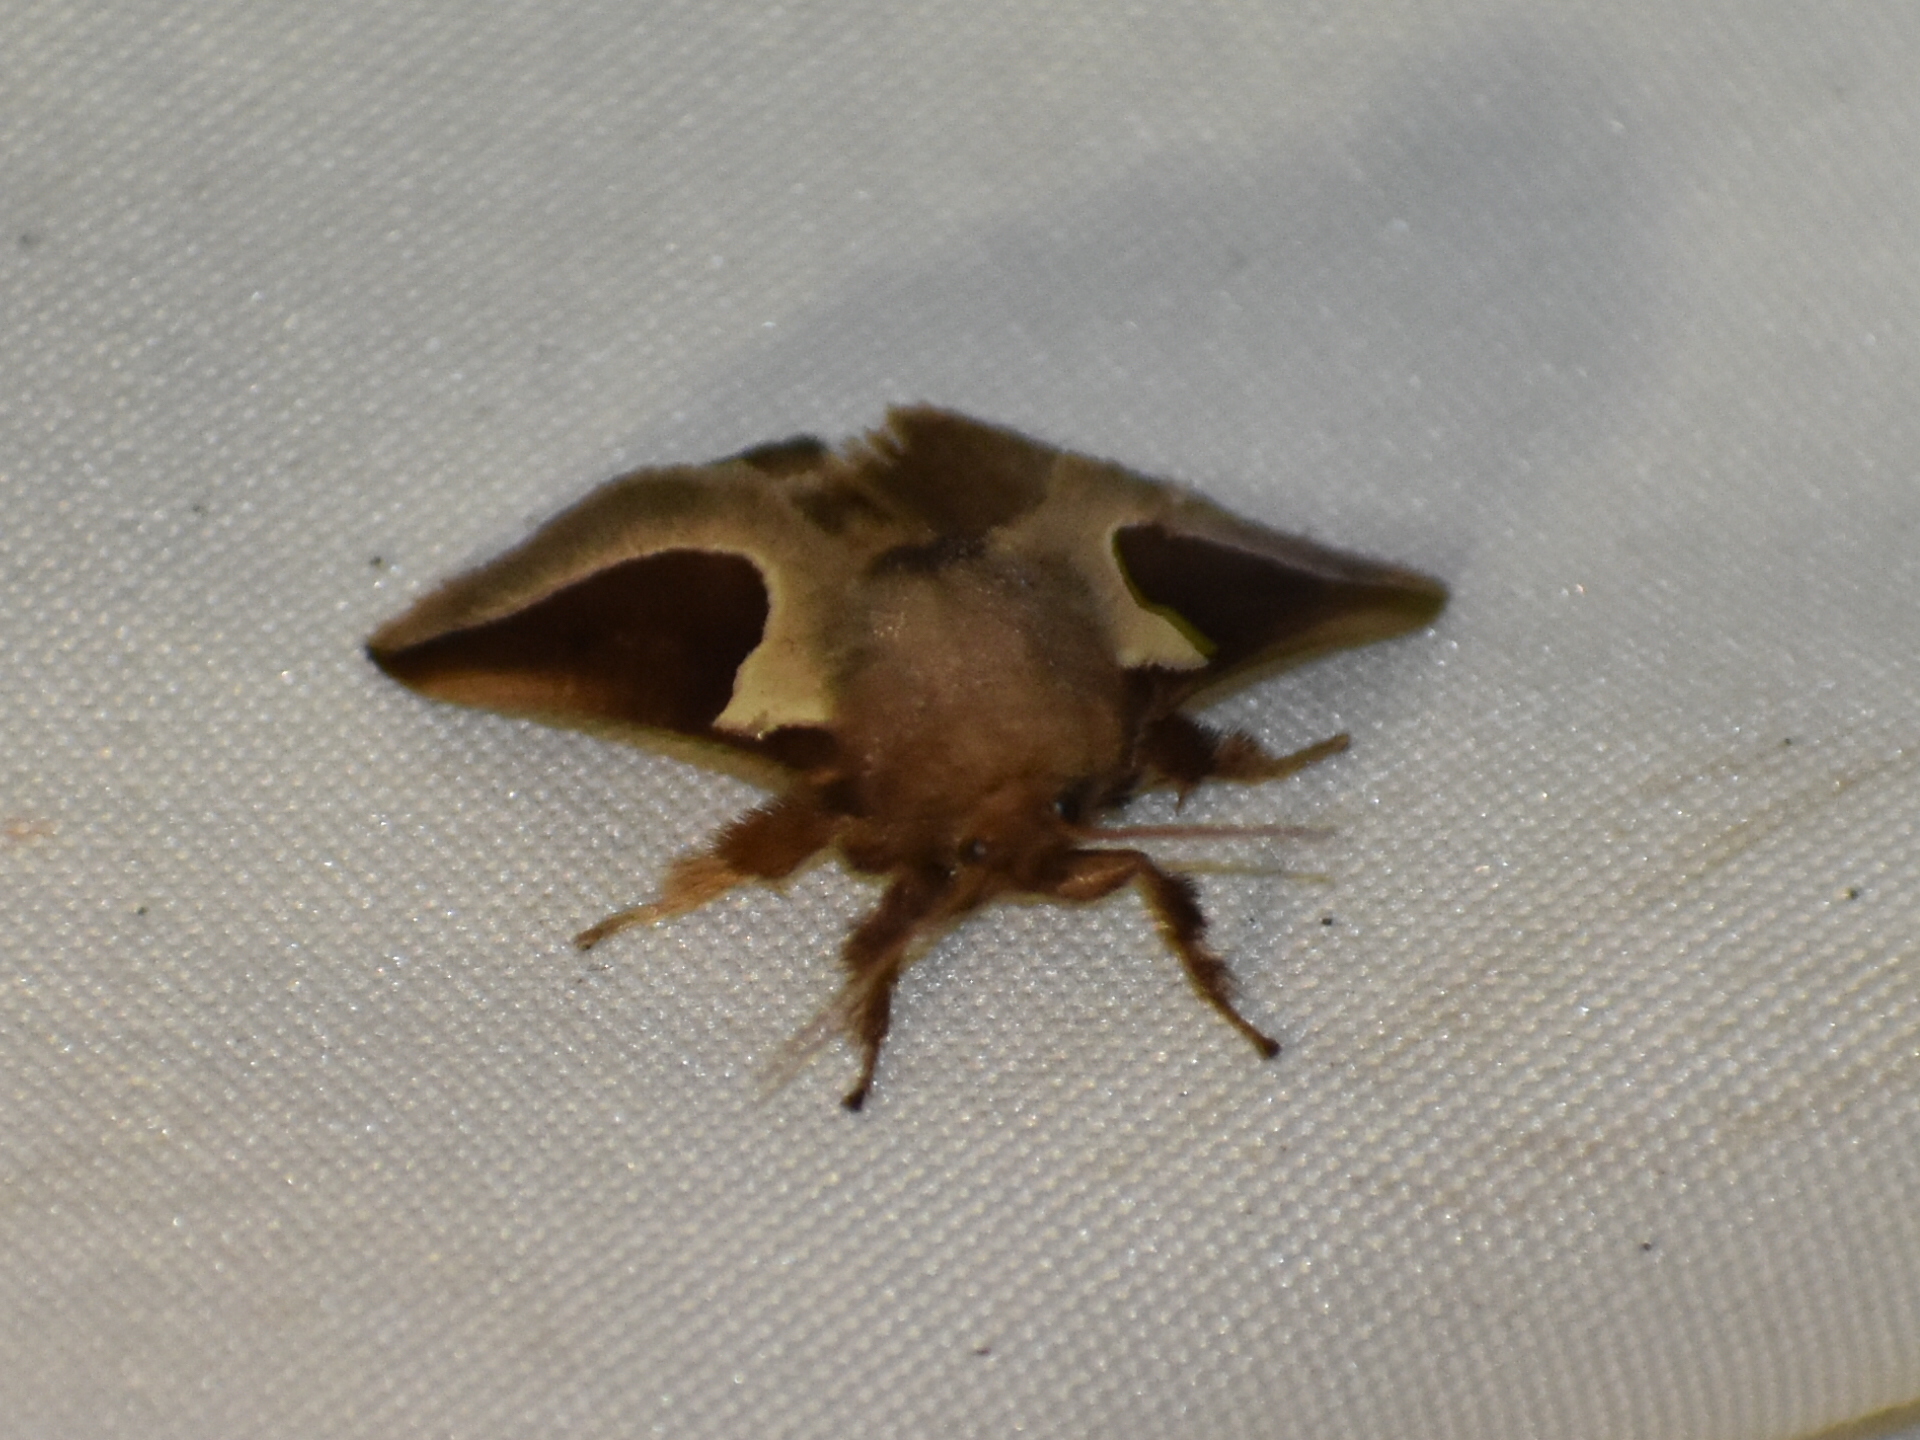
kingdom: Animalia
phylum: Arthropoda
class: Insecta
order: Lepidoptera
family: Limacodidae
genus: Prolimacodes
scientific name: Prolimacodes badia
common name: Skiff moth
